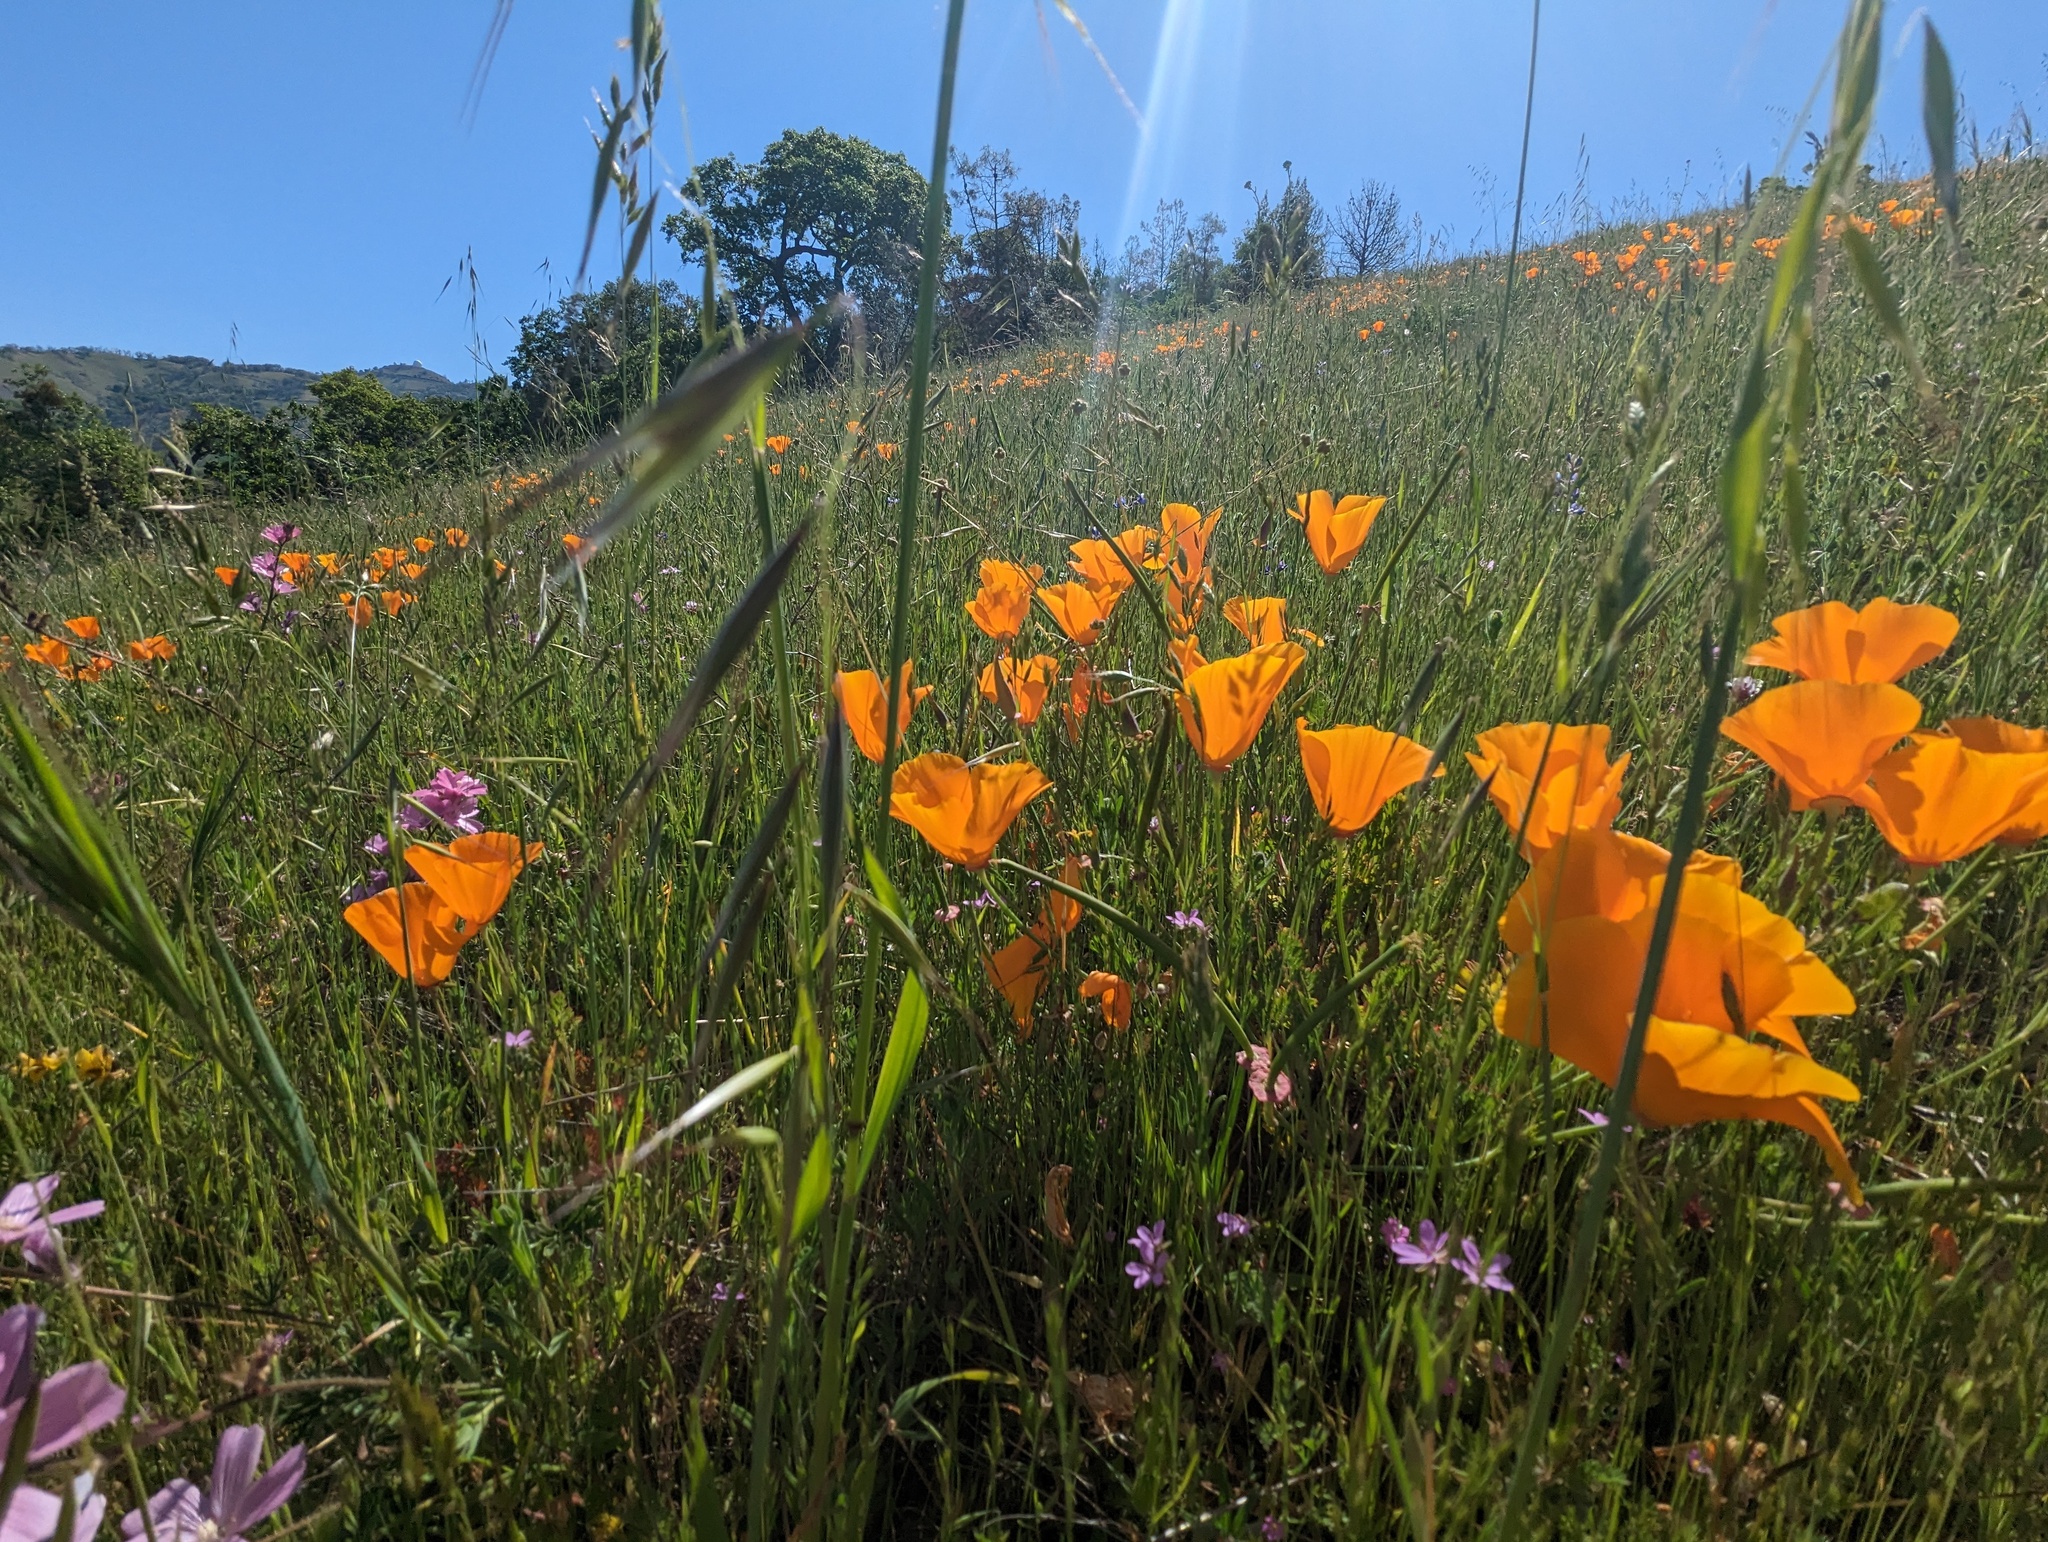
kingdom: Plantae
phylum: Tracheophyta
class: Magnoliopsida
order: Ranunculales
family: Papaveraceae
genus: Eschscholzia
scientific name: Eschscholzia californica
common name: California poppy
